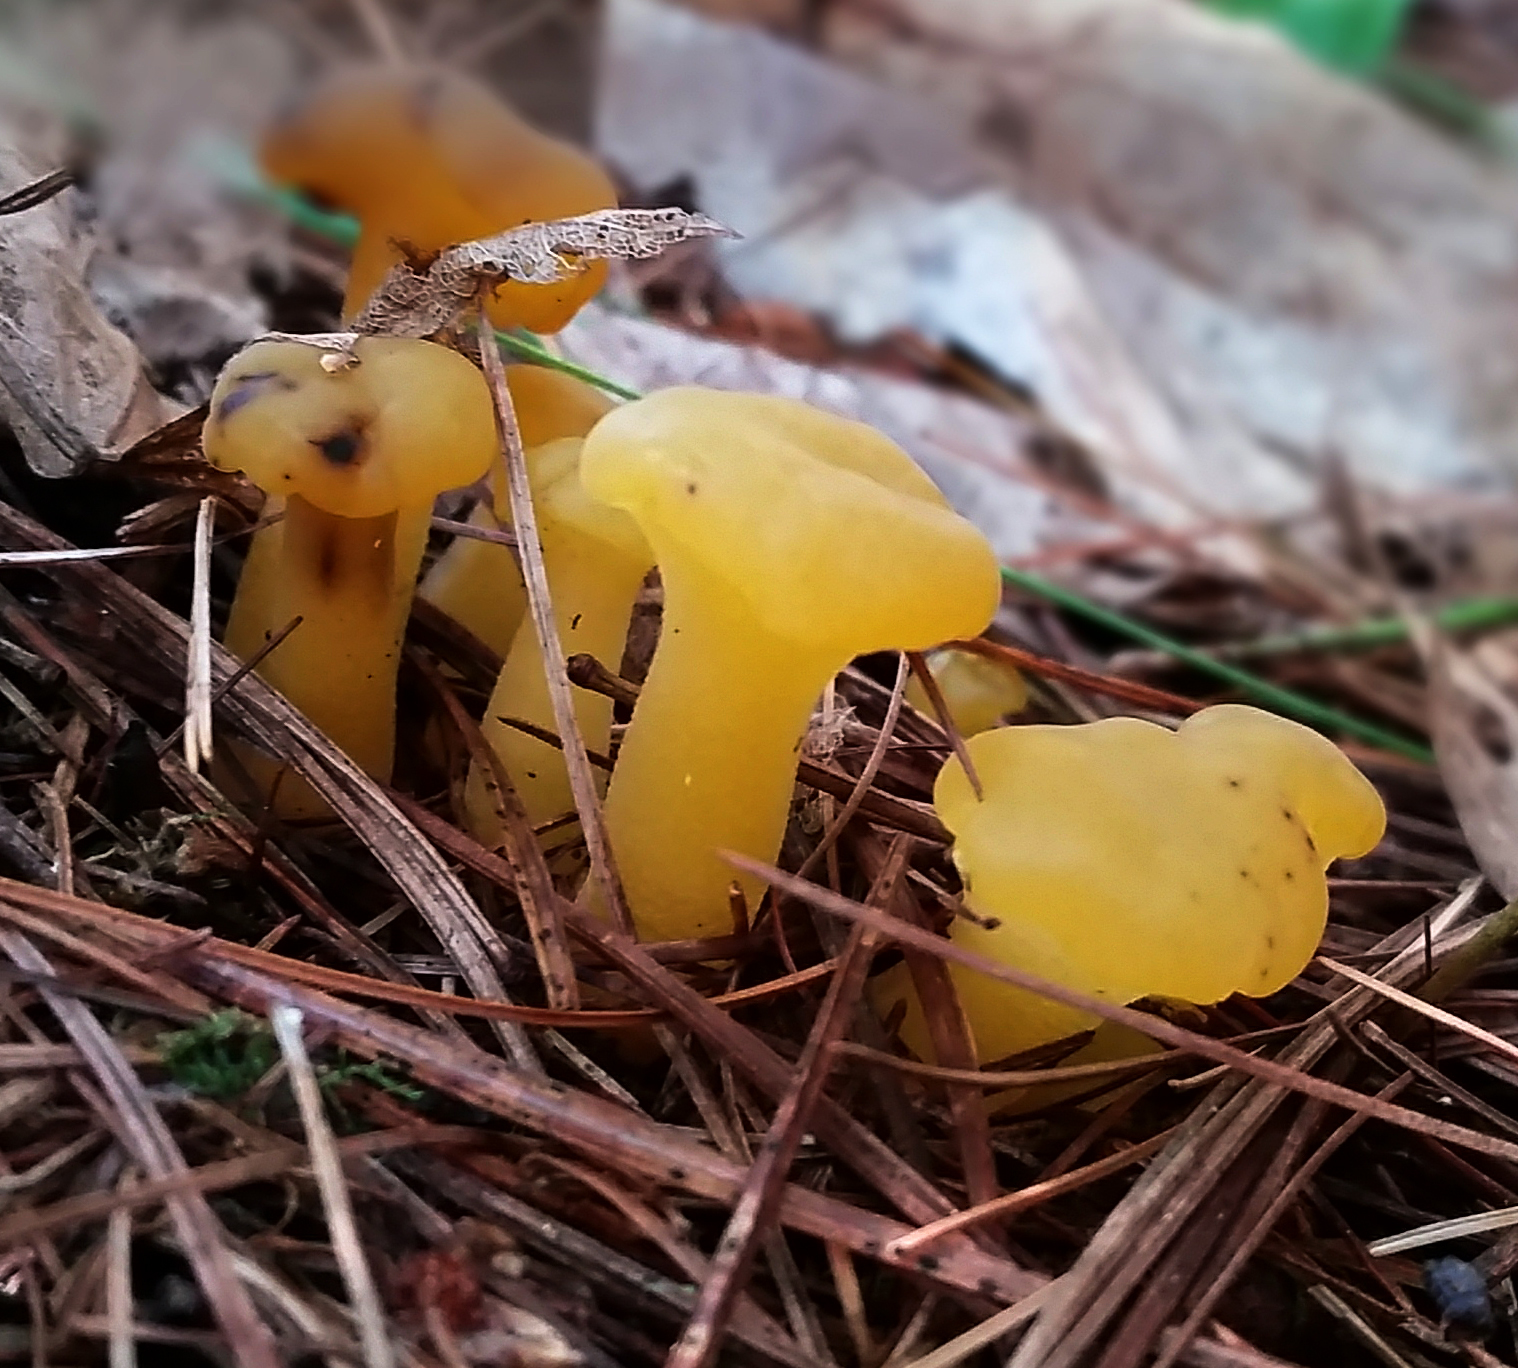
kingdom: Fungi
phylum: Ascomycota
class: Leotiomycetes
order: Leotiales
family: Leotiaceae
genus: Leotia
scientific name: Leotia lubrica
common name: Jellybaby
